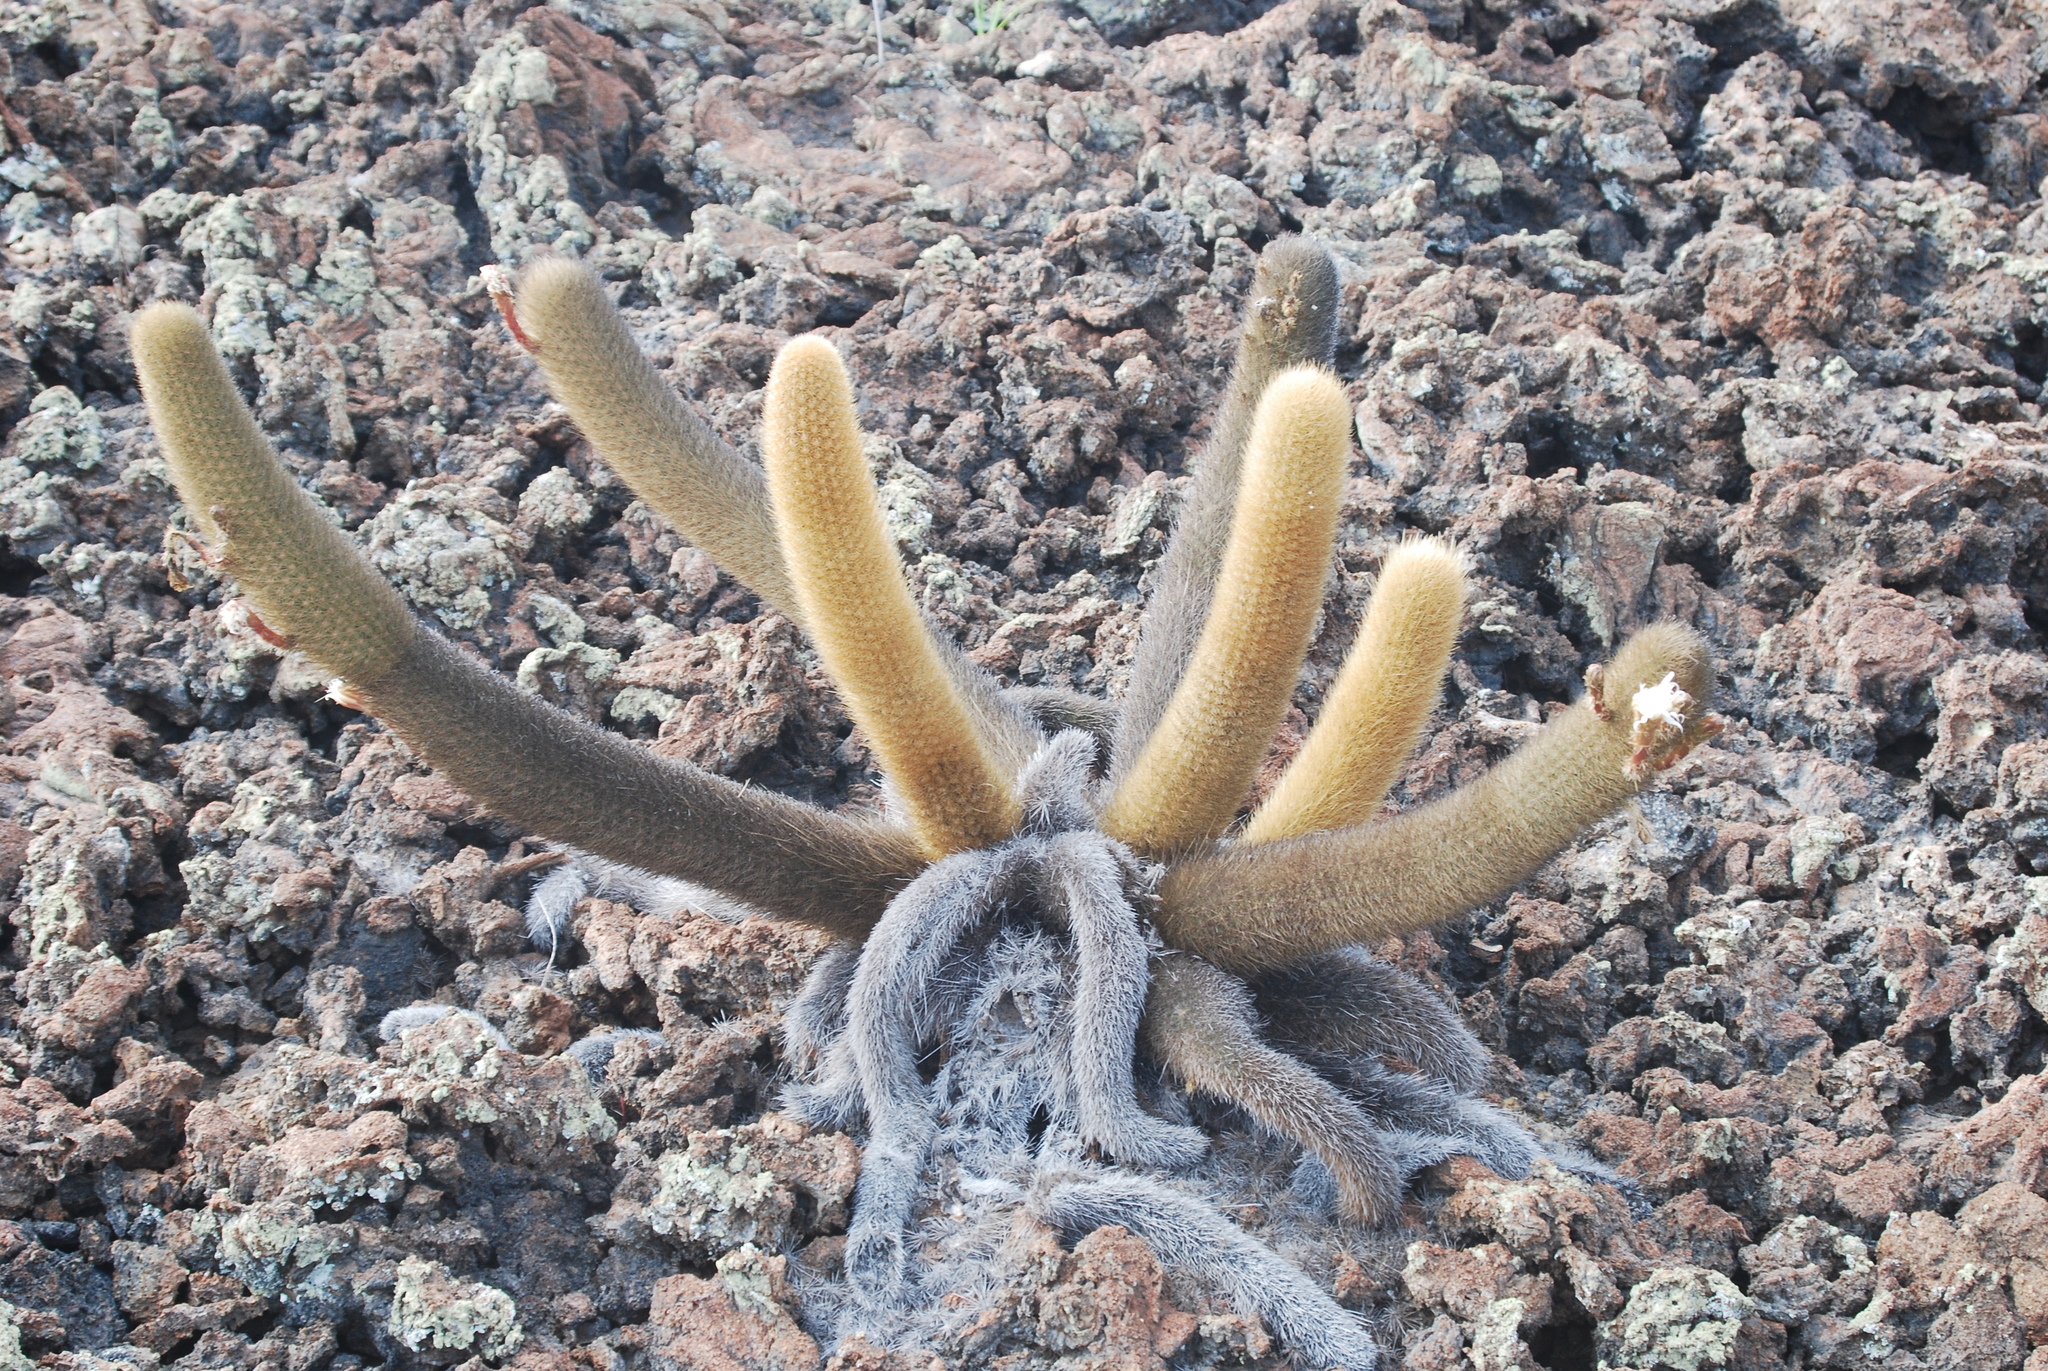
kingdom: Plantae
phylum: Tracheophyta
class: Magnoliopsida
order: Caryophyllales
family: Cactaceae
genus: Brachycereus
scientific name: Brachycereus nesioticus
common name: Lava cactus
